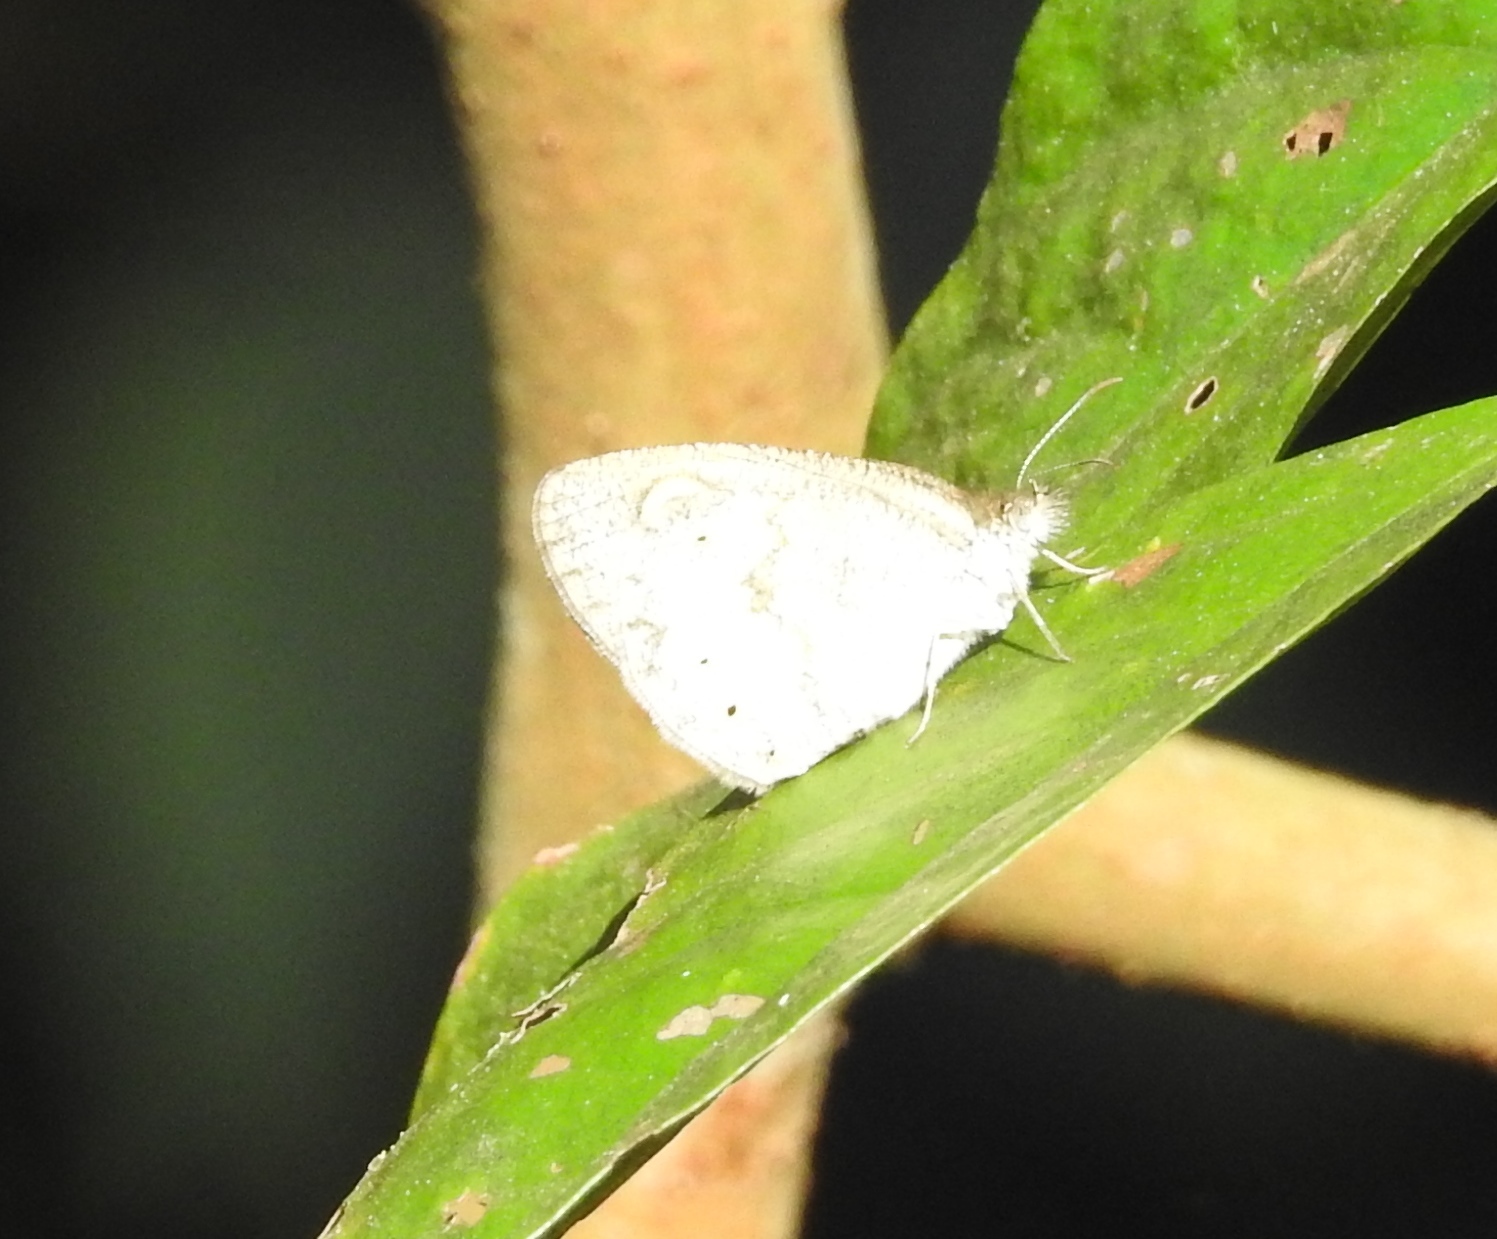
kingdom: Animalia
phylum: Arthropoda
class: Insecta
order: Lepidoptera
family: Nymphalidae
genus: Ypthima
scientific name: Ypthima huebneri
